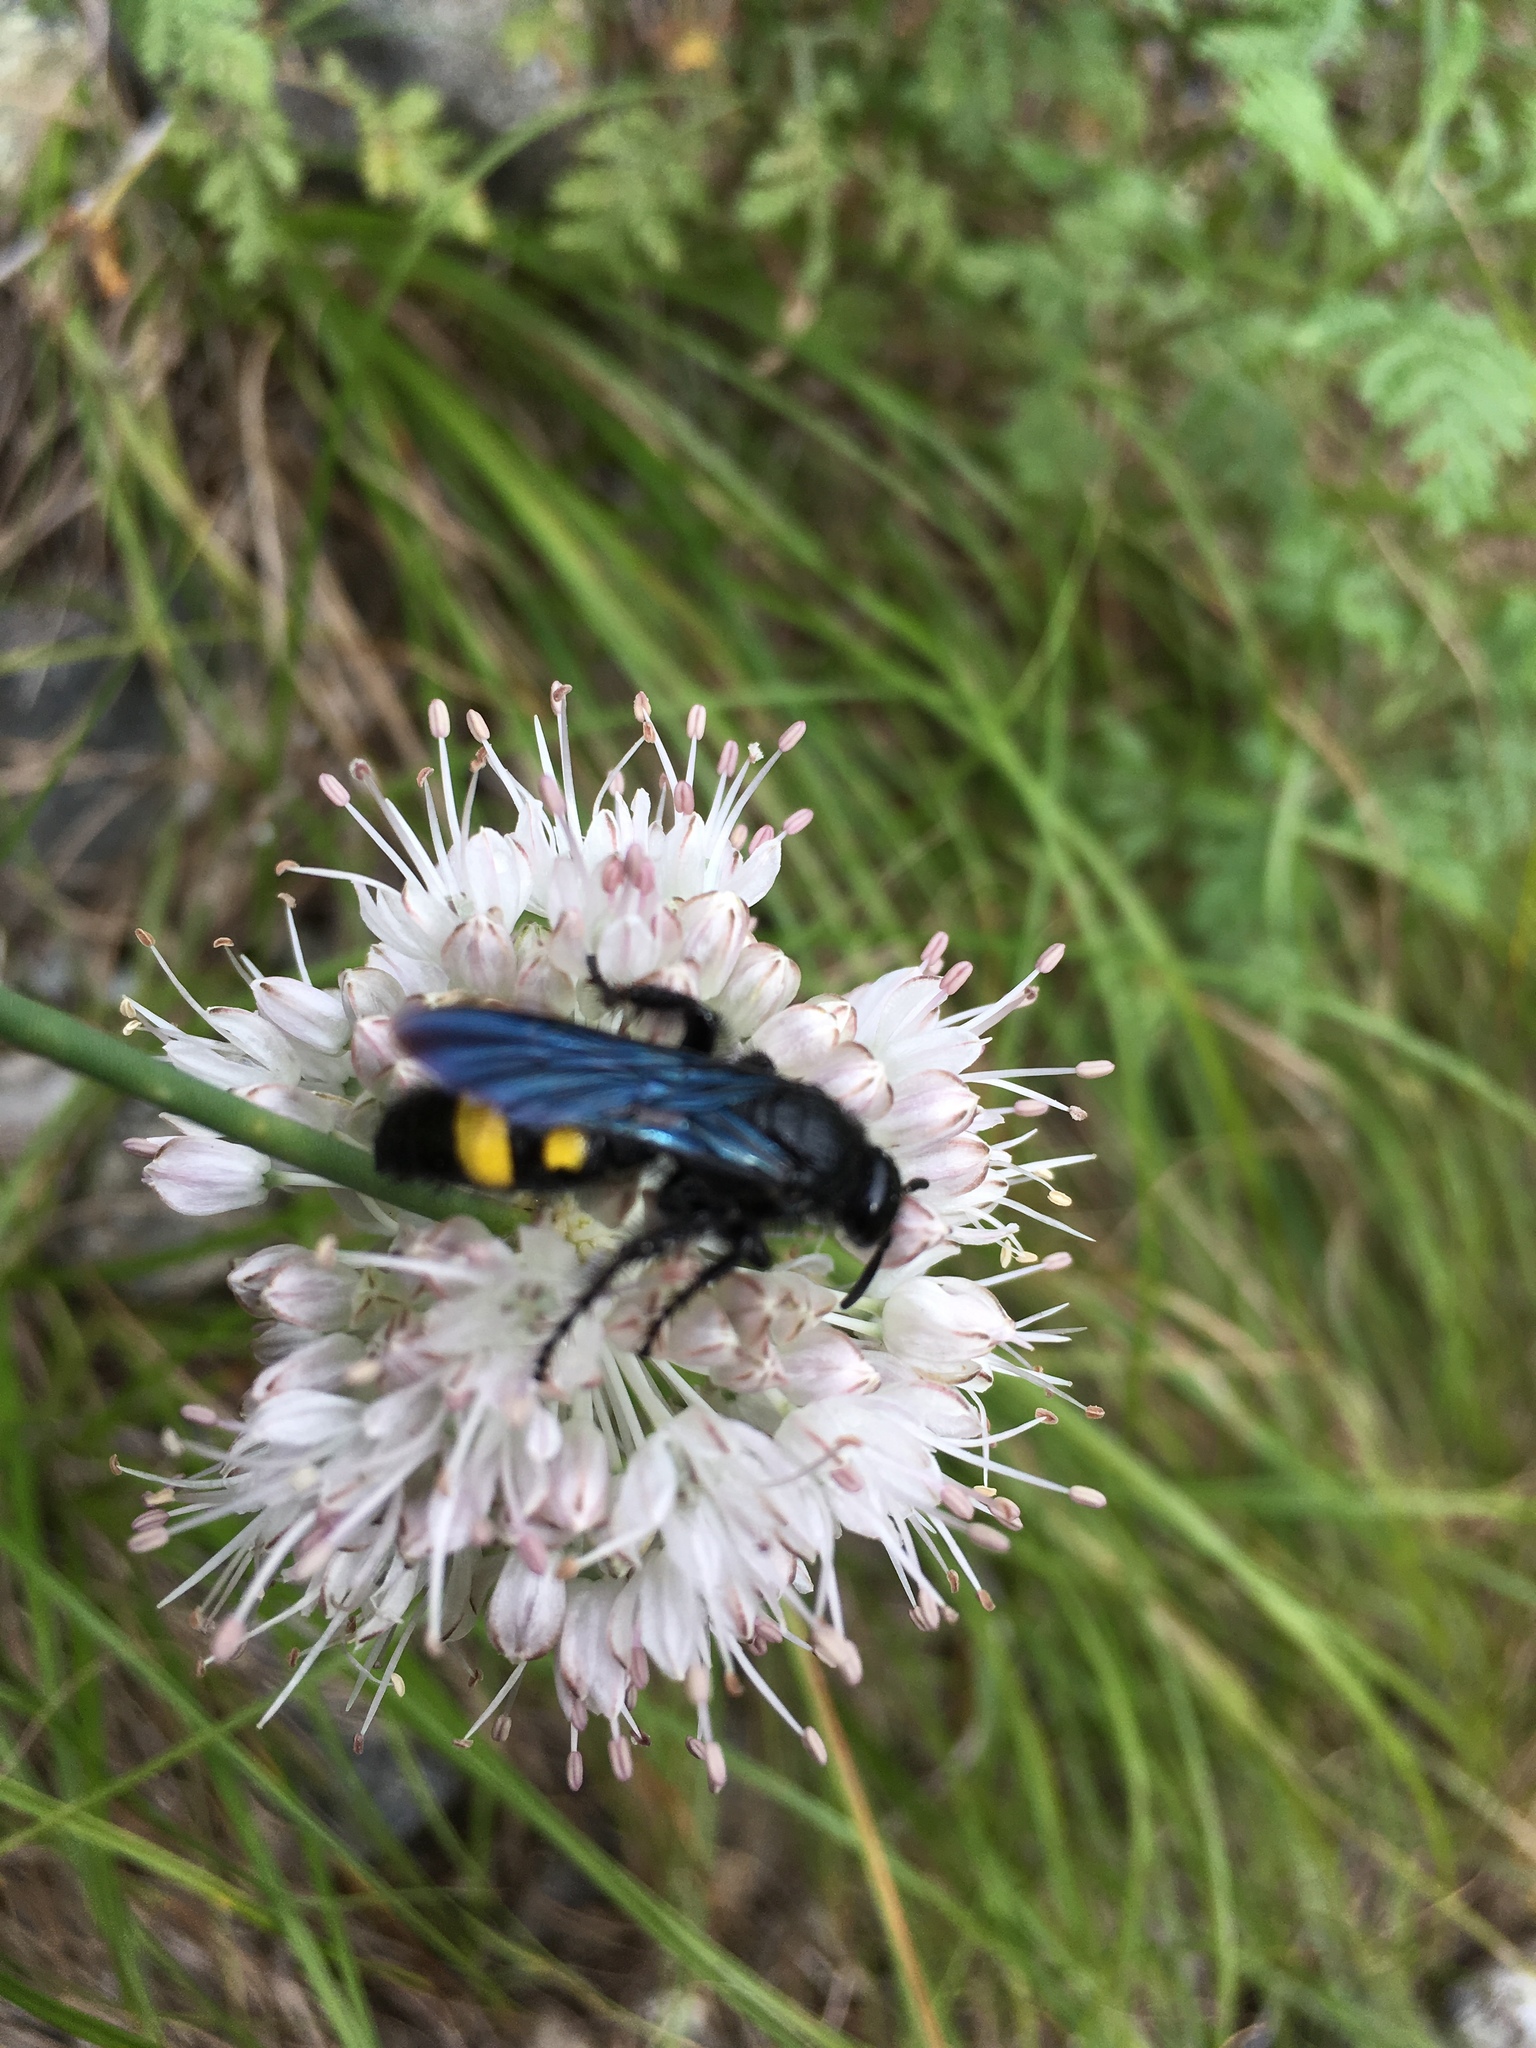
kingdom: Animalia
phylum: Arthropoda
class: Insecta
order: Hymenoptera
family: Scoliidae
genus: Scolia
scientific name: Scolia hirta
